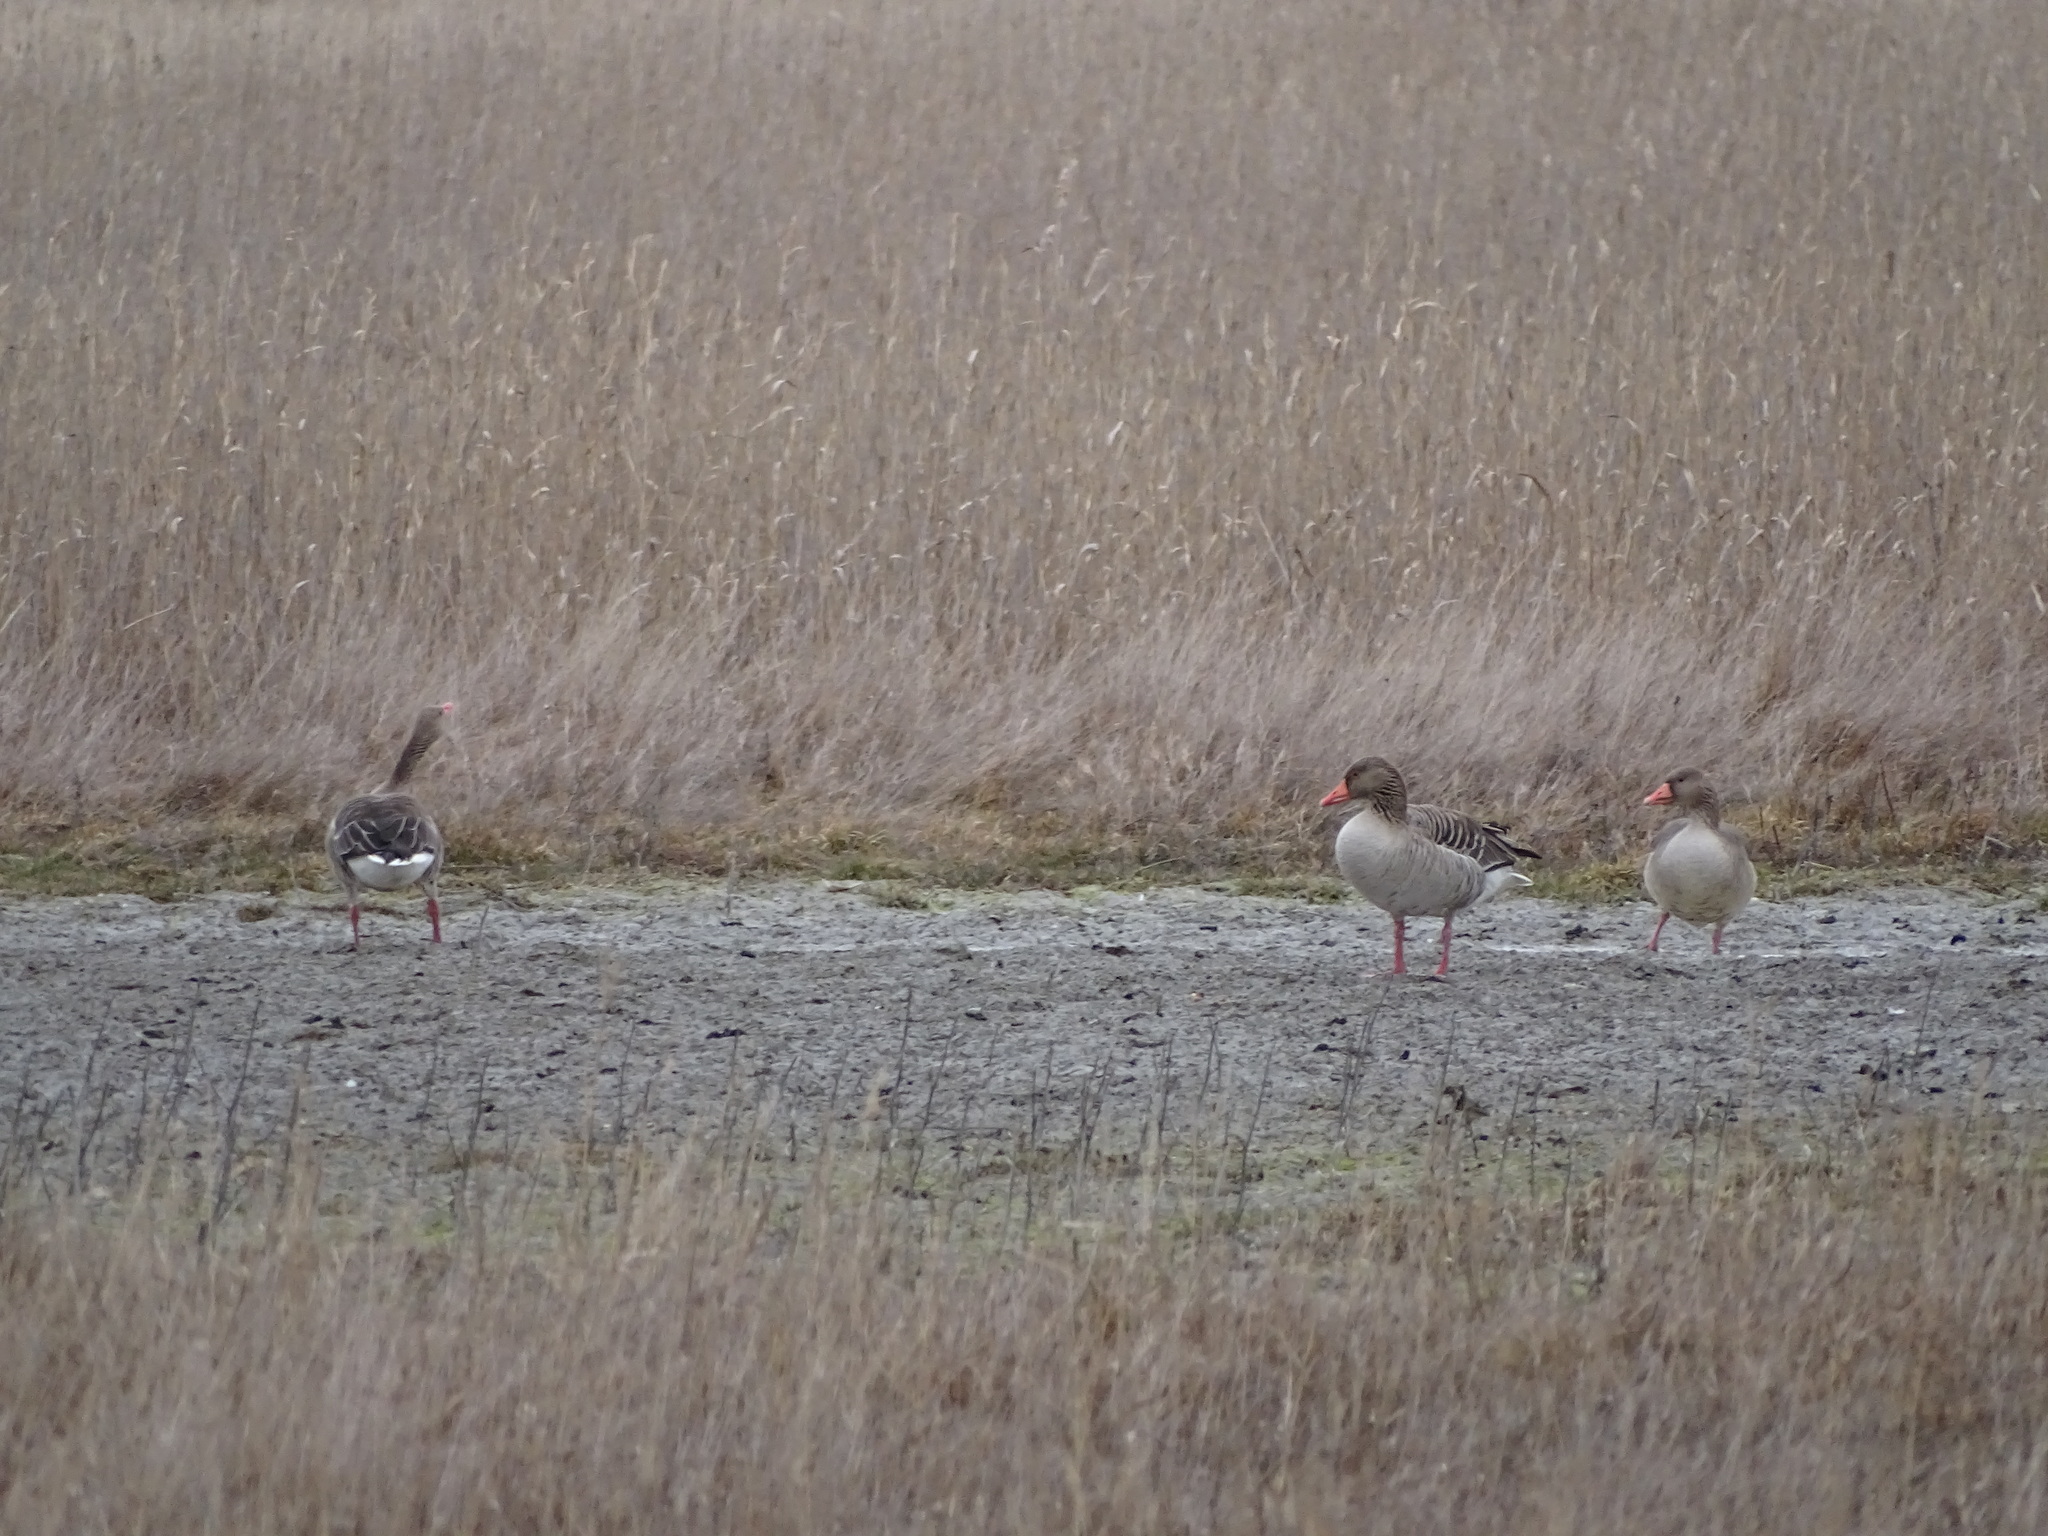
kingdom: Animalia
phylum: Chordata
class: Aves
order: Anseriformes
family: Anatidae
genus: Anser
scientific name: Anser anser
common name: Greylag goose
